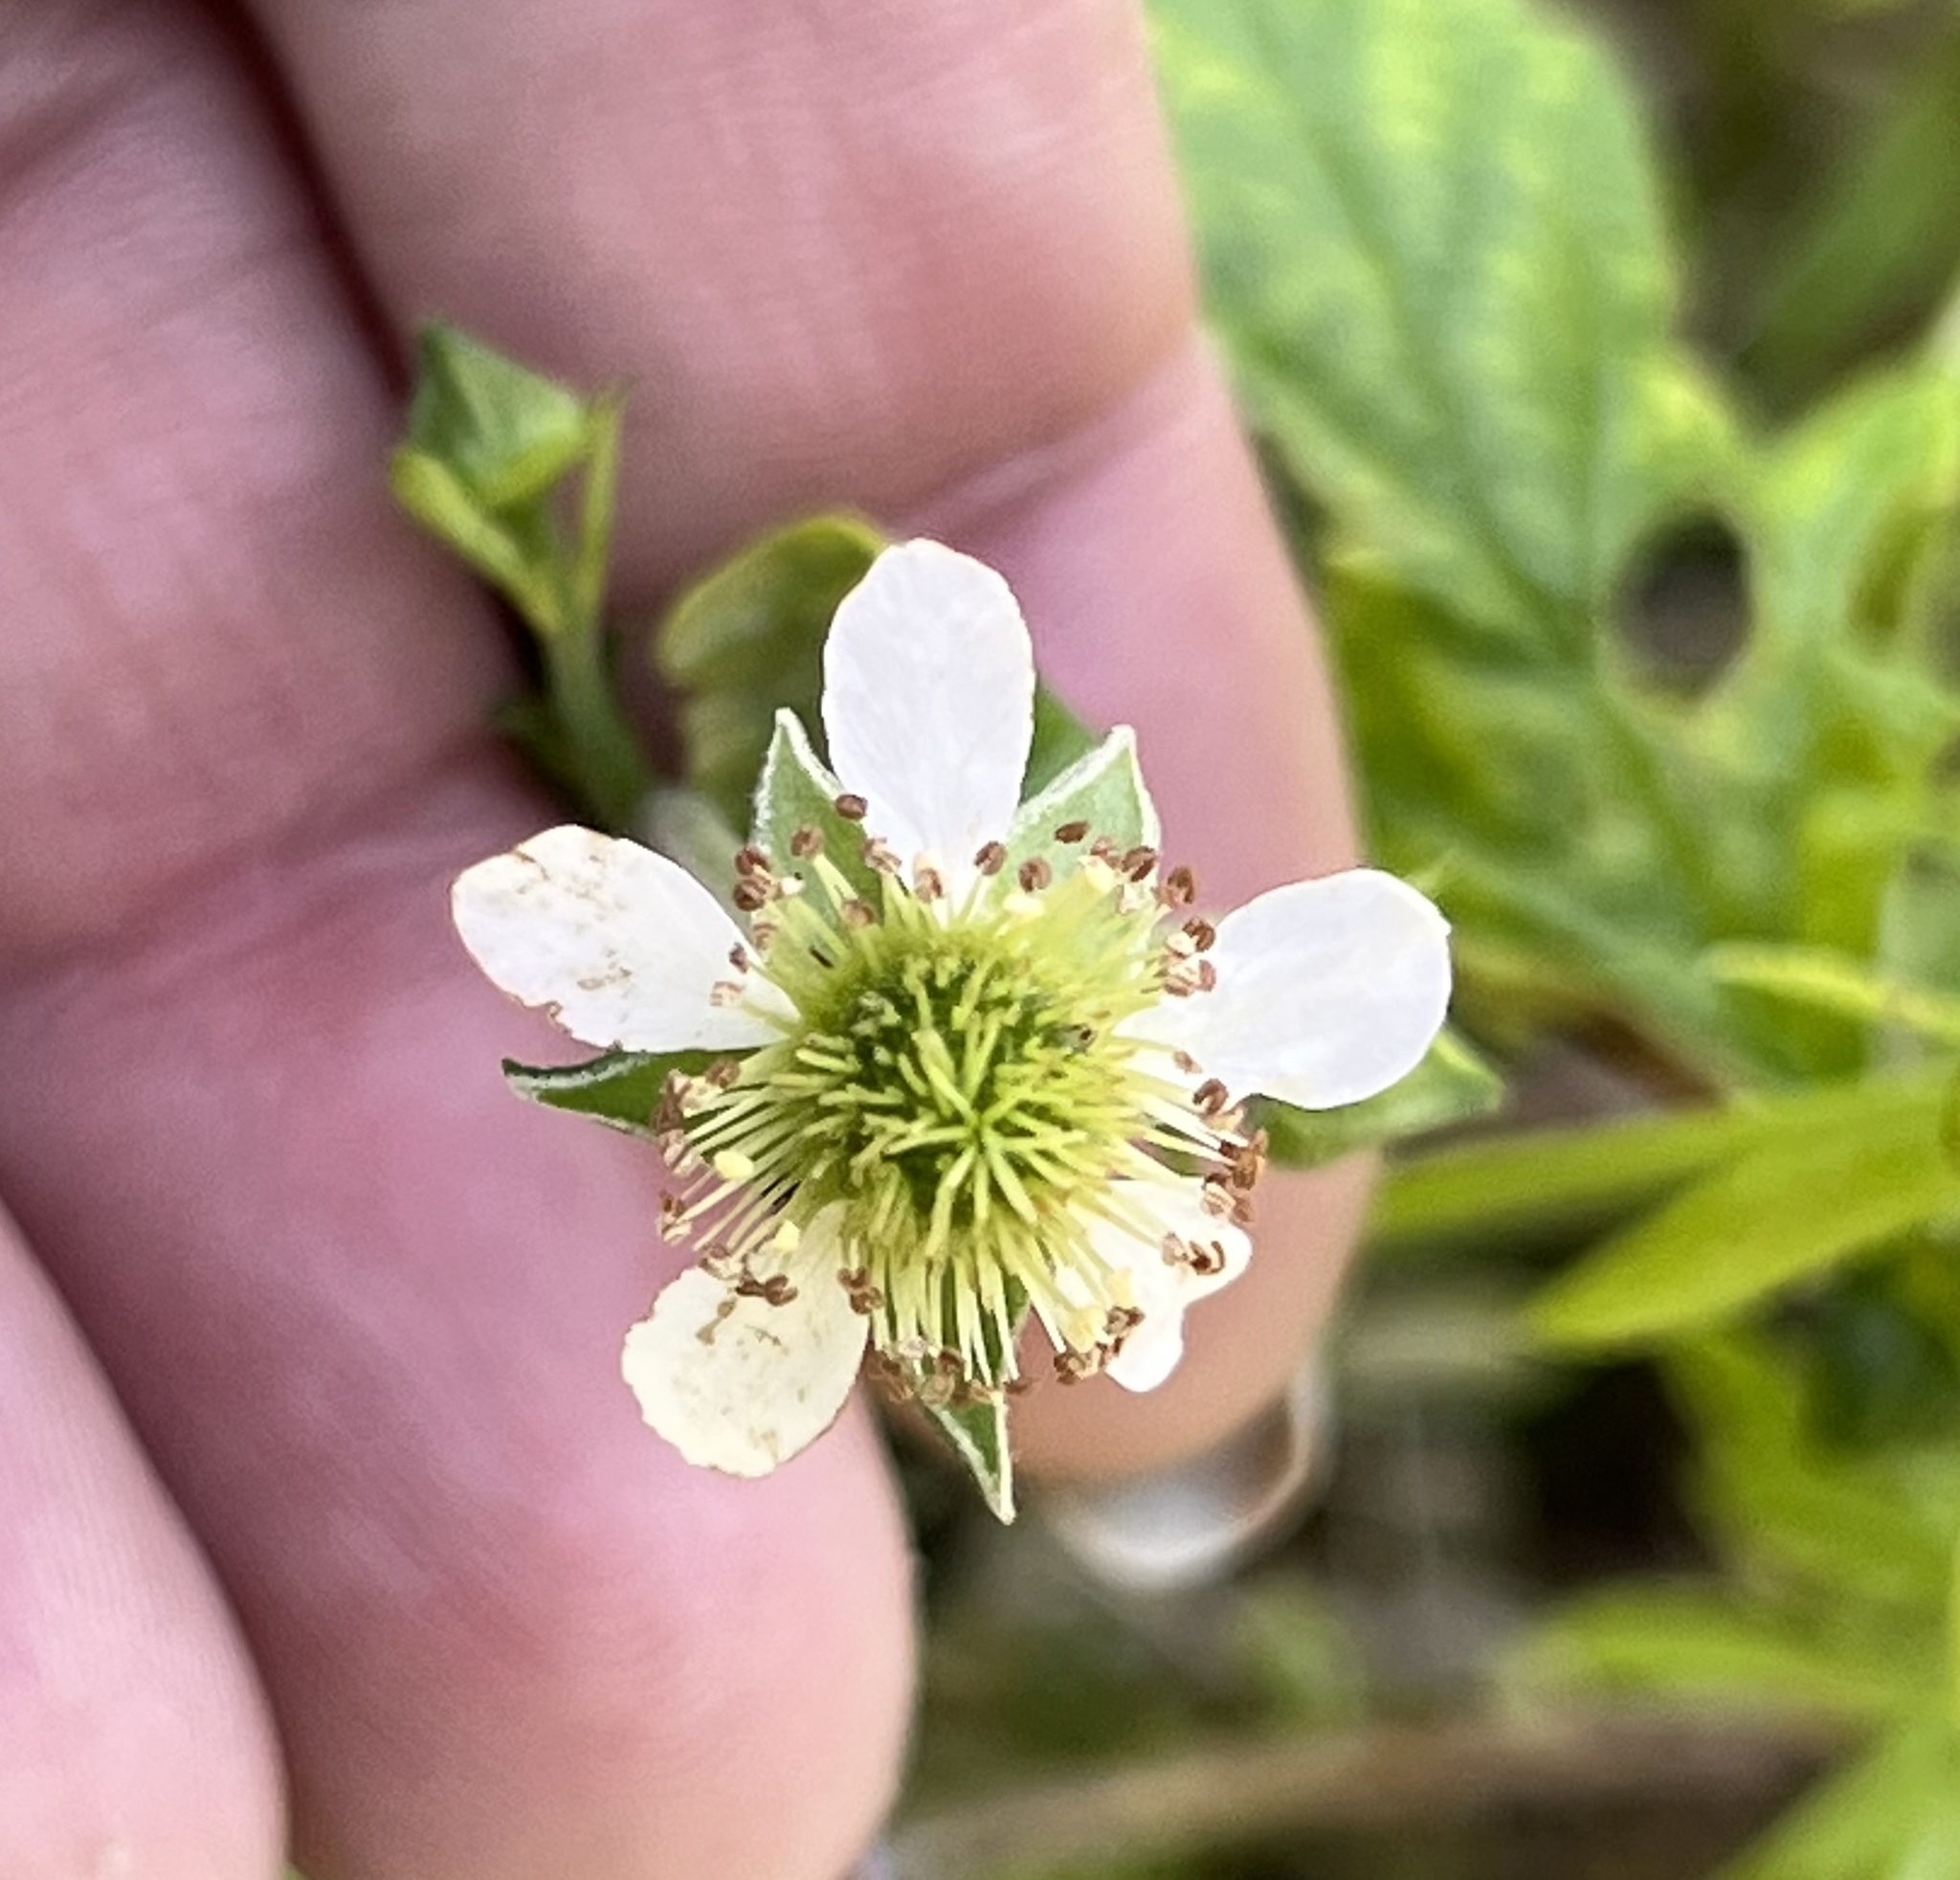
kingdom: Plantae
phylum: Tracheophyta
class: Magnoliopsida
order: Rosales
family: Rosaceae
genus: Geum
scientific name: Geum canadense
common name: White avens
